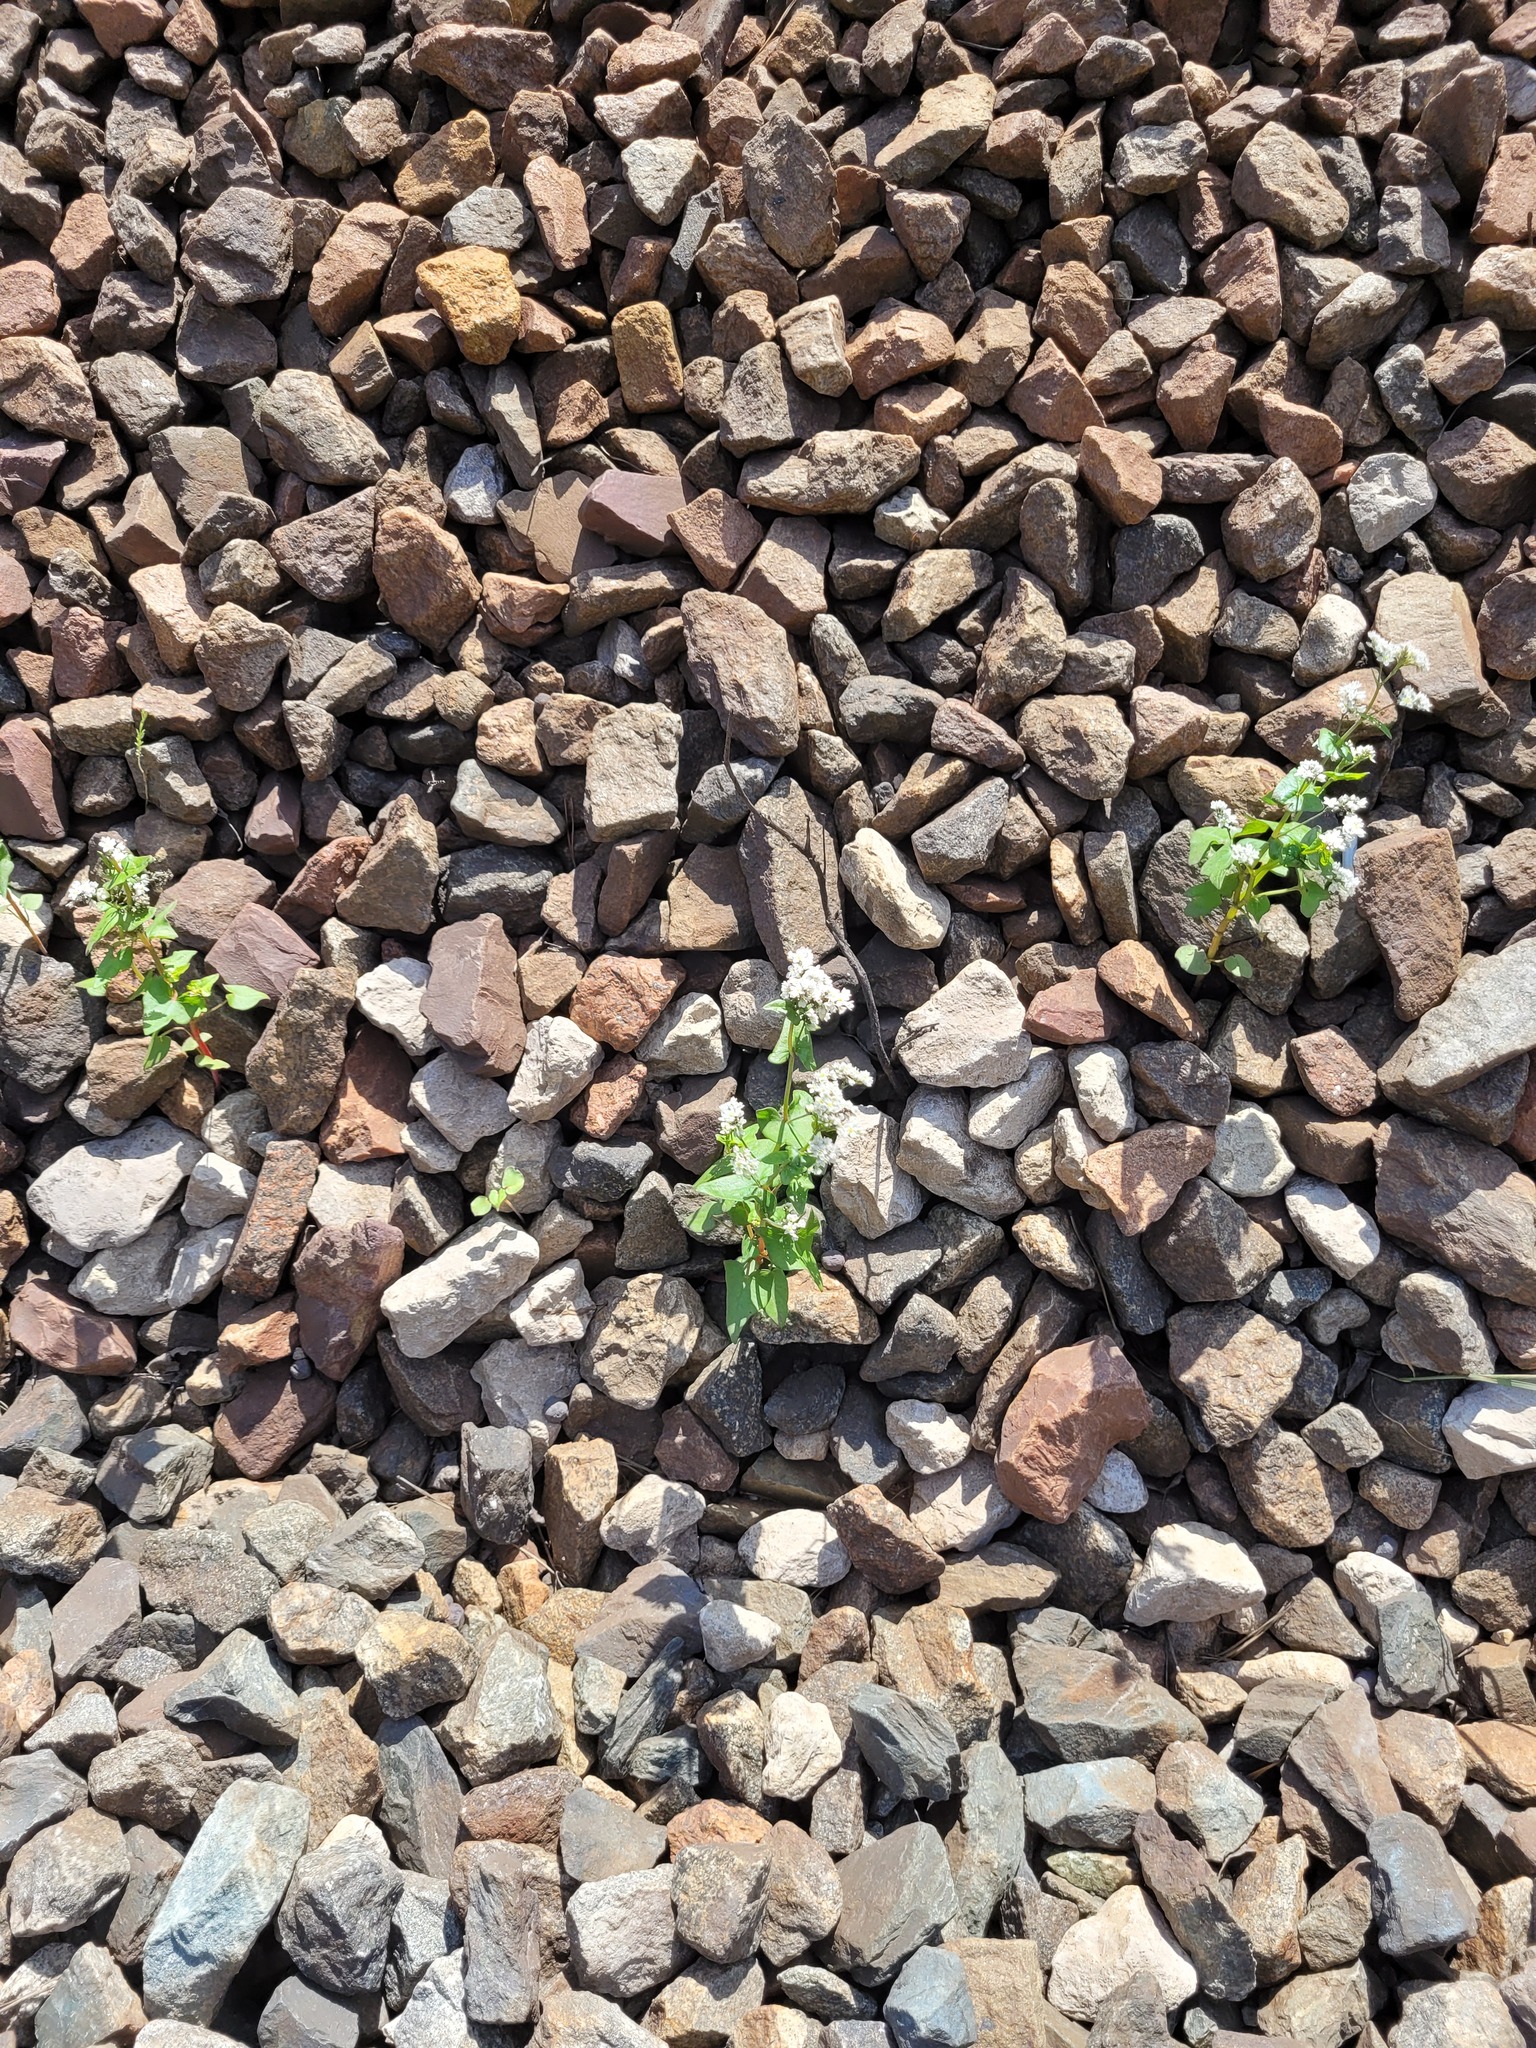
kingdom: Plantae
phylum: Tracheophyta
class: Magnoliopsida
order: Caryophyllales
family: Polygonaceae
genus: Fagopyrum
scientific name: Fagopyrum esculentum
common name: Buckwheat
